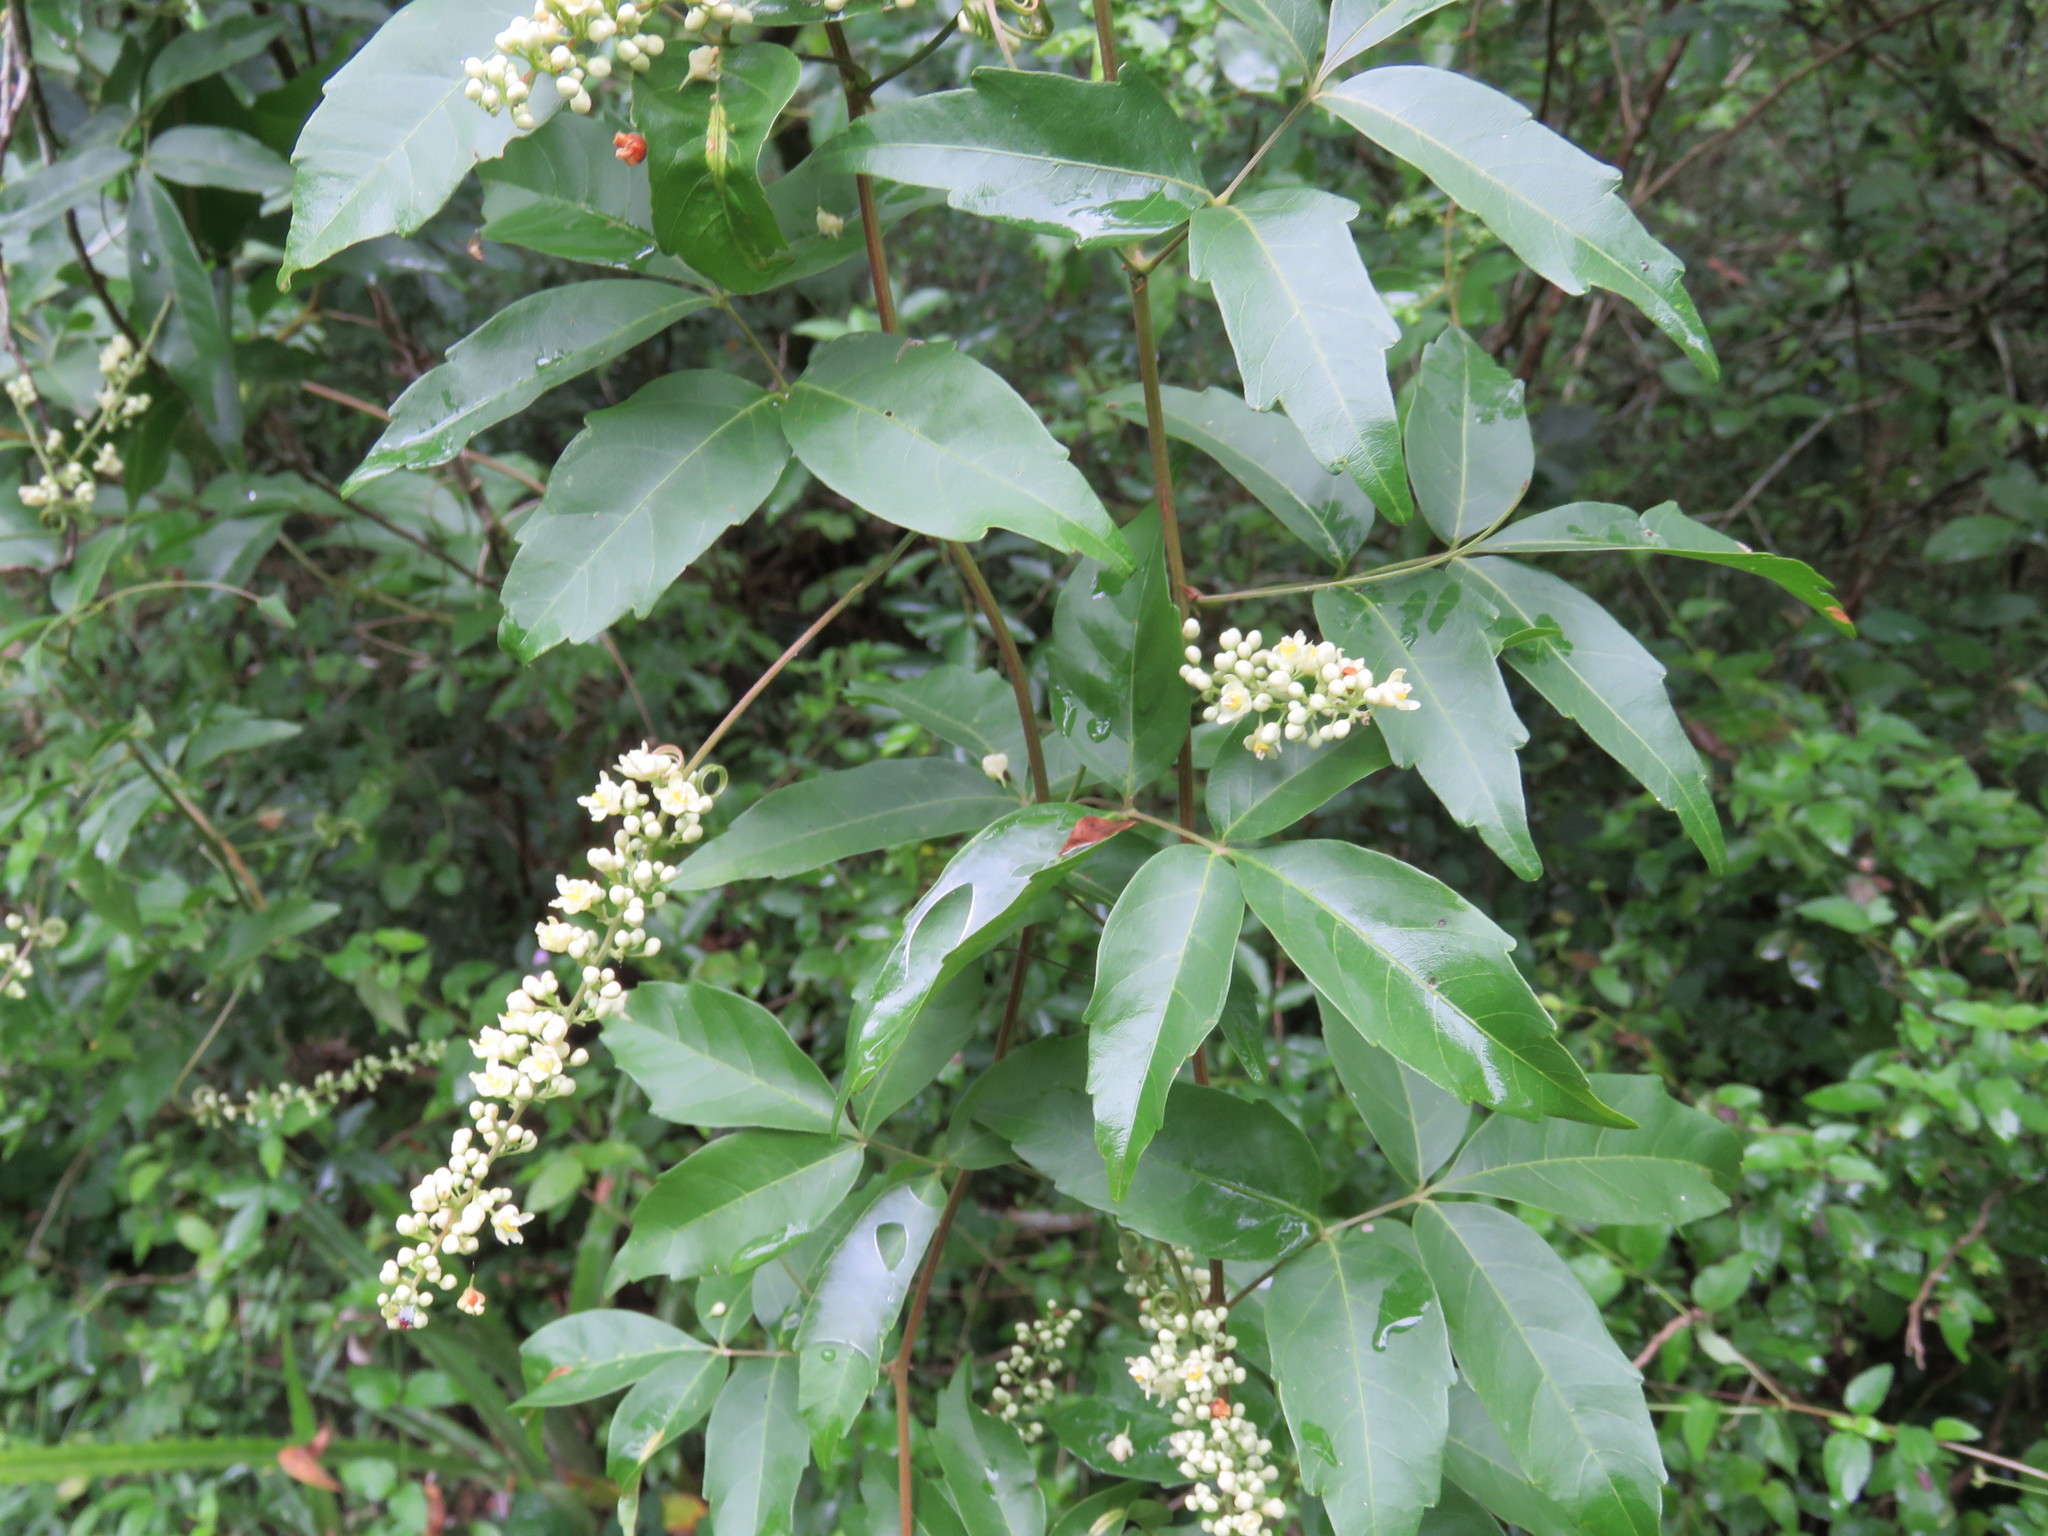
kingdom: Plantae
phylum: Tracheophyta
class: Magnoliopsida
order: Sapindales
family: Sapindaceae
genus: Paullinia
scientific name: Paullinia elegans
